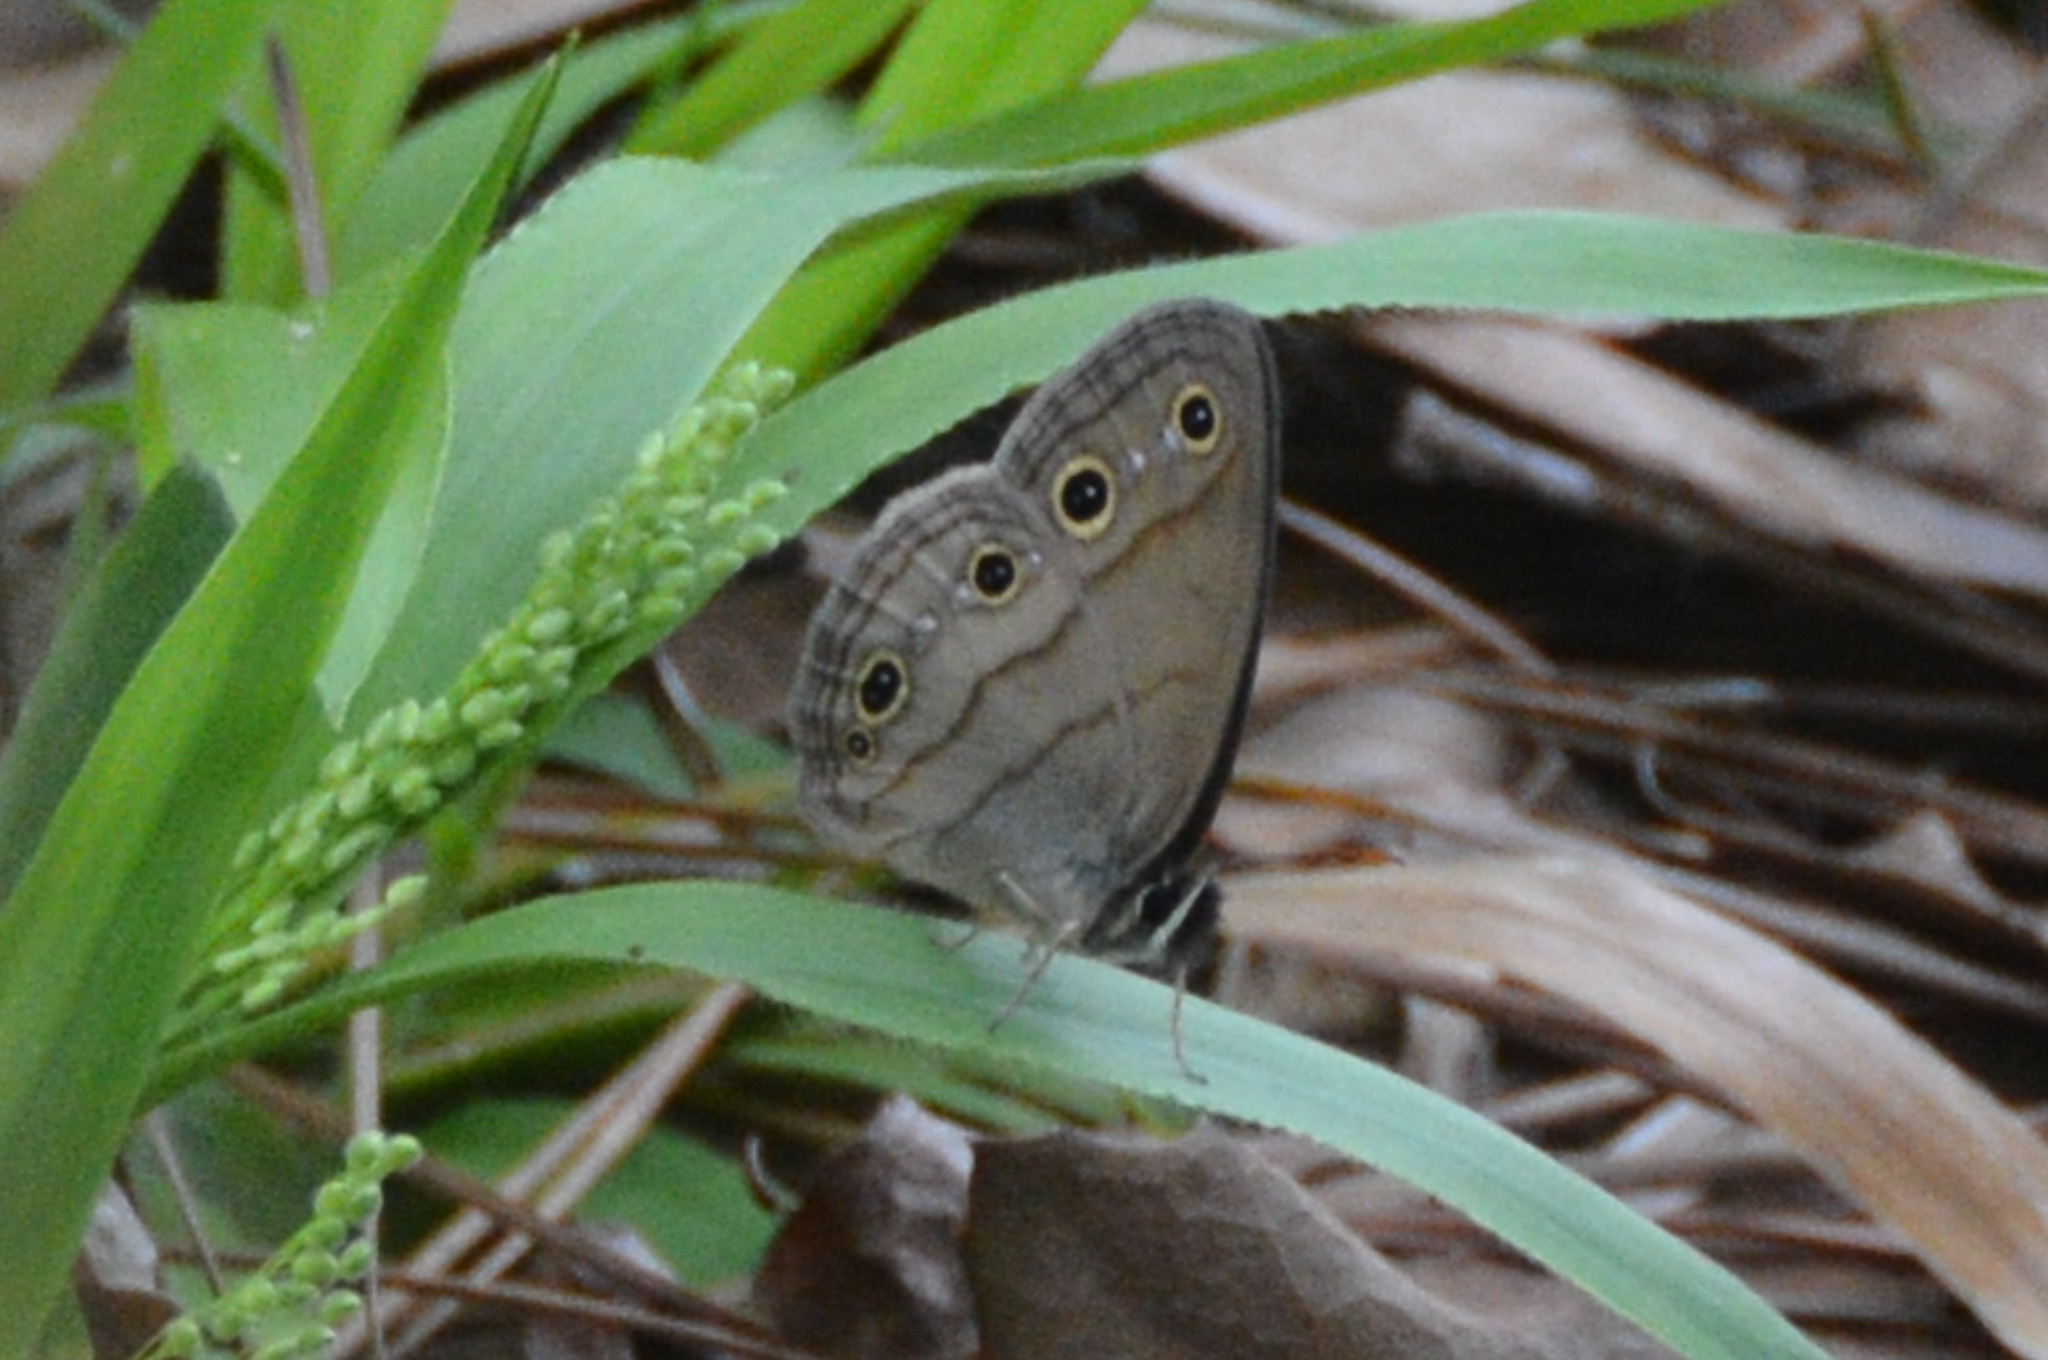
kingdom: Animalia
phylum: Arthropoda
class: Insecta
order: Lepidoptera
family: Nymphalidae
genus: Euptychia
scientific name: Euptychia cymela
